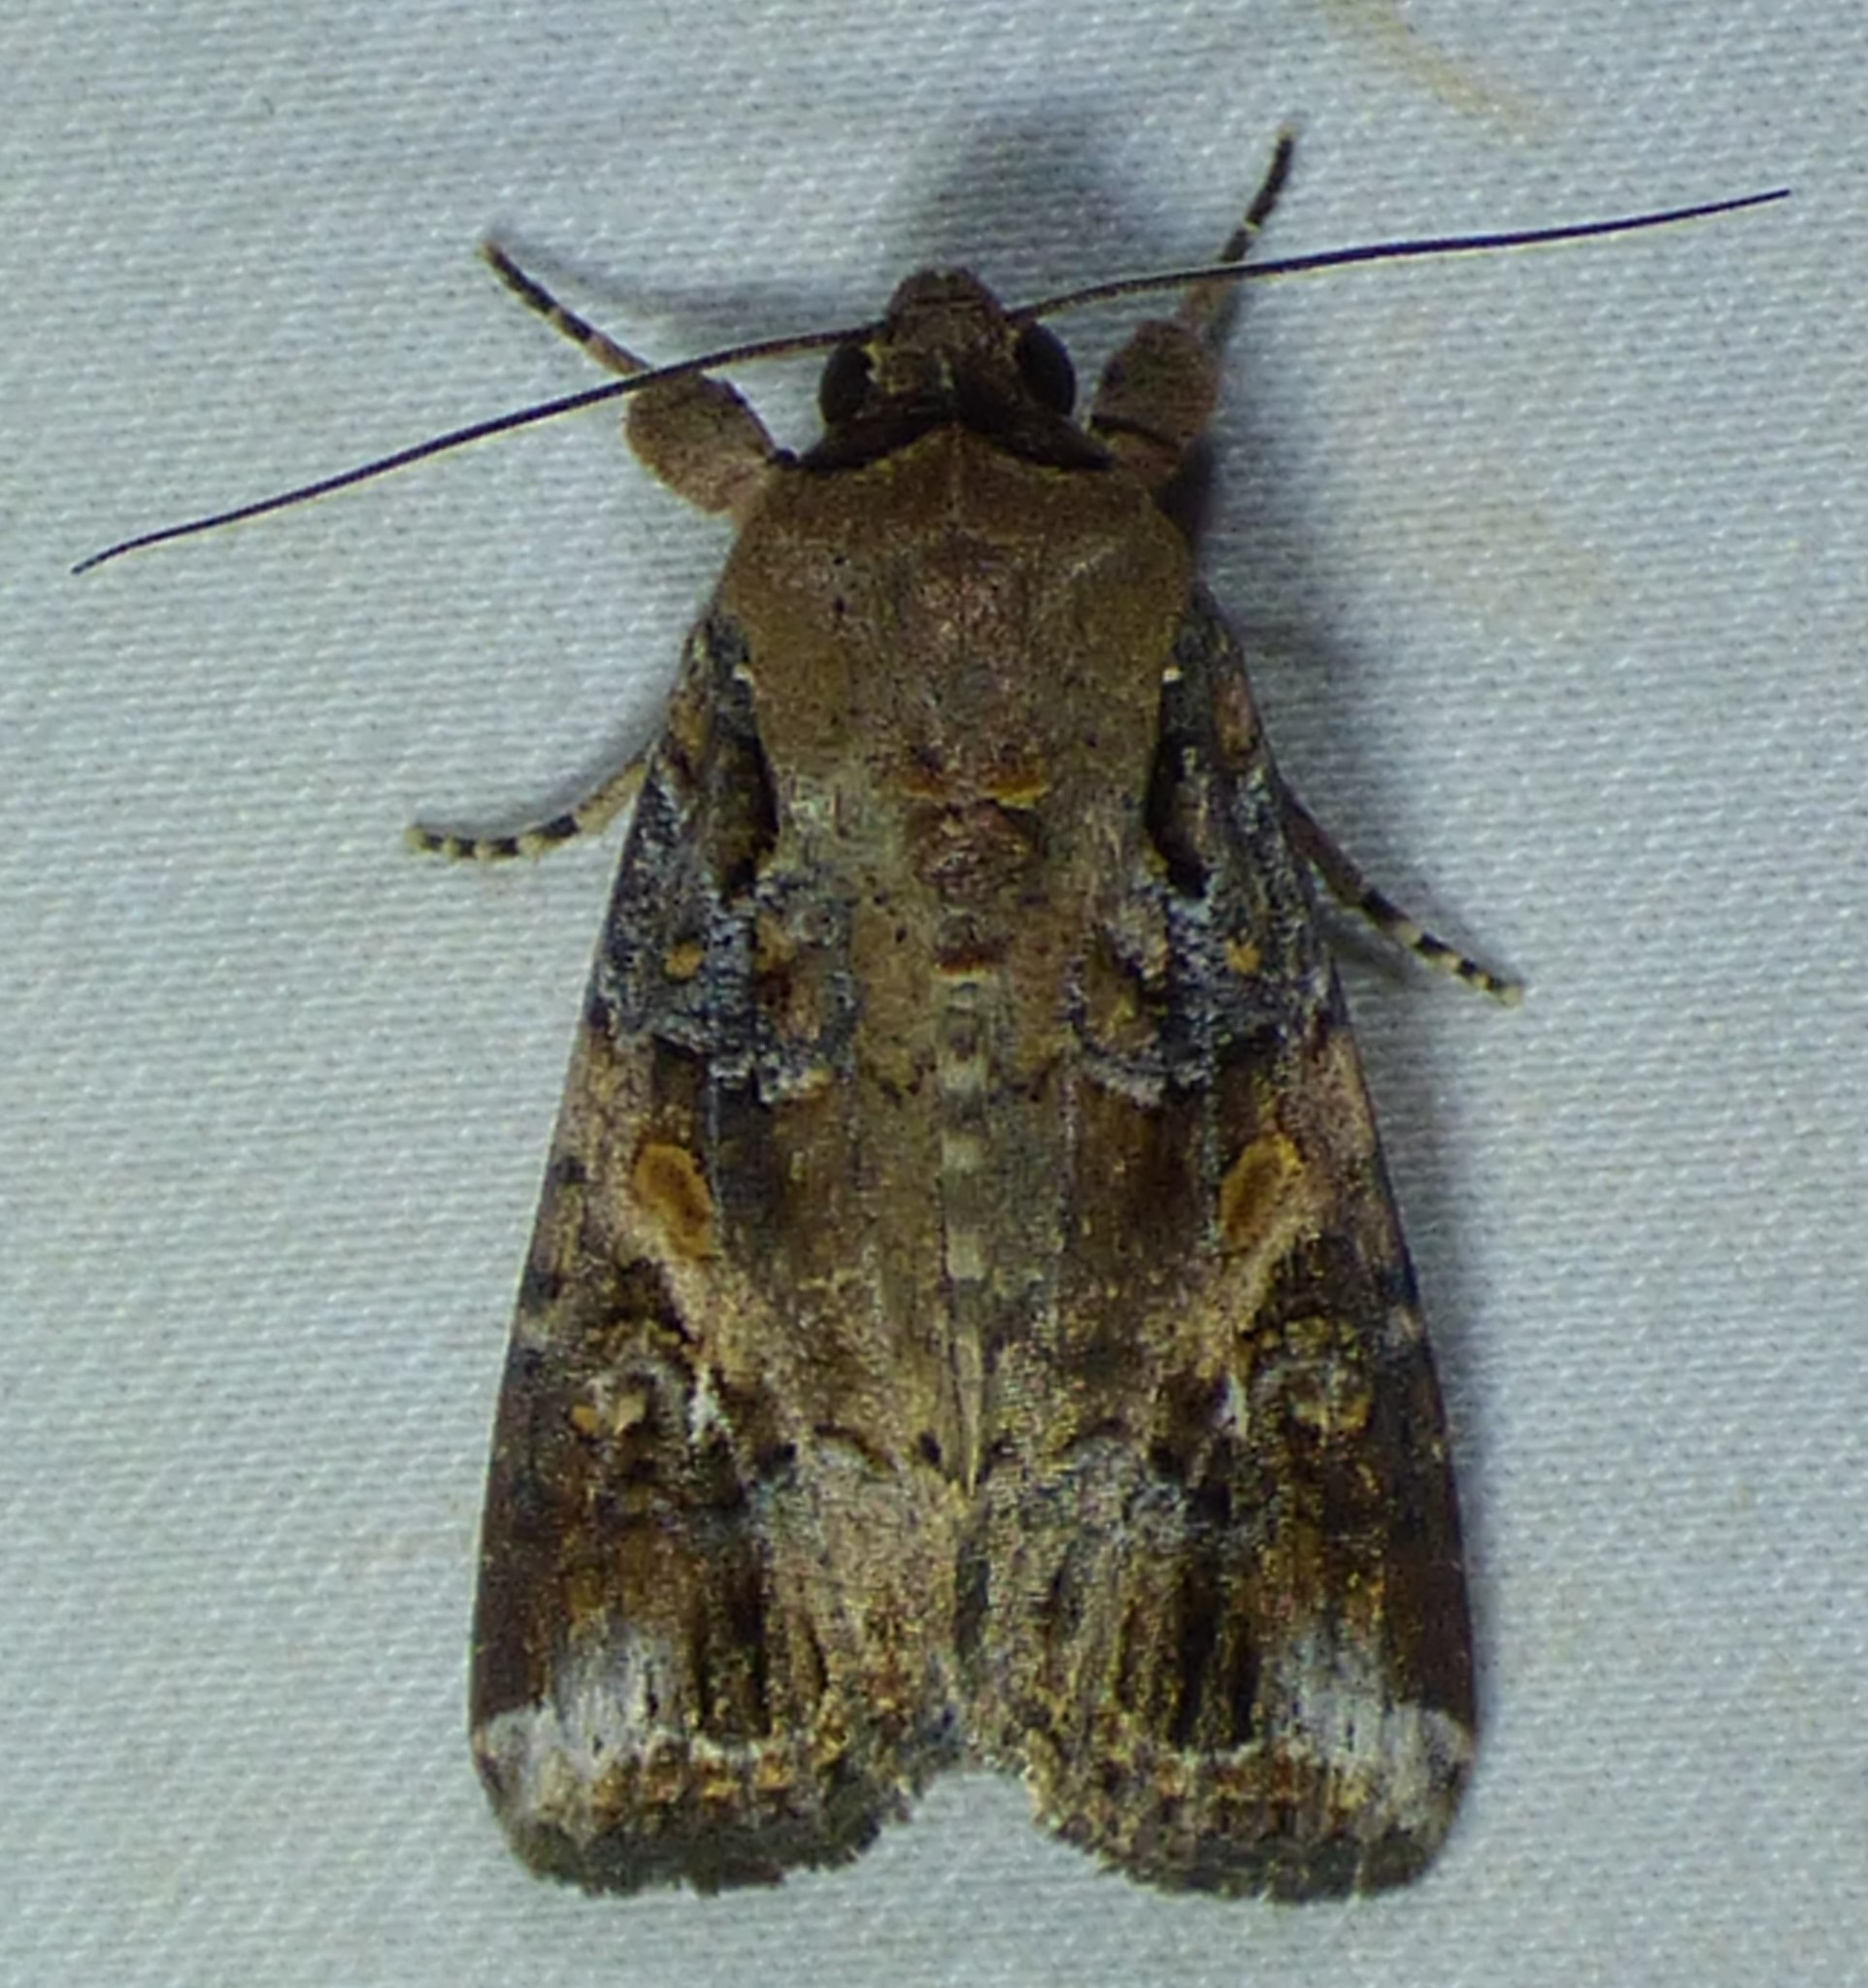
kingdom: Animalia
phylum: Arthropoda
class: Insecta
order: Lepidoptera
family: Noctuidae
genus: Spodoptera
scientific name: Spodoptera frugiperda
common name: Fall armyworm
